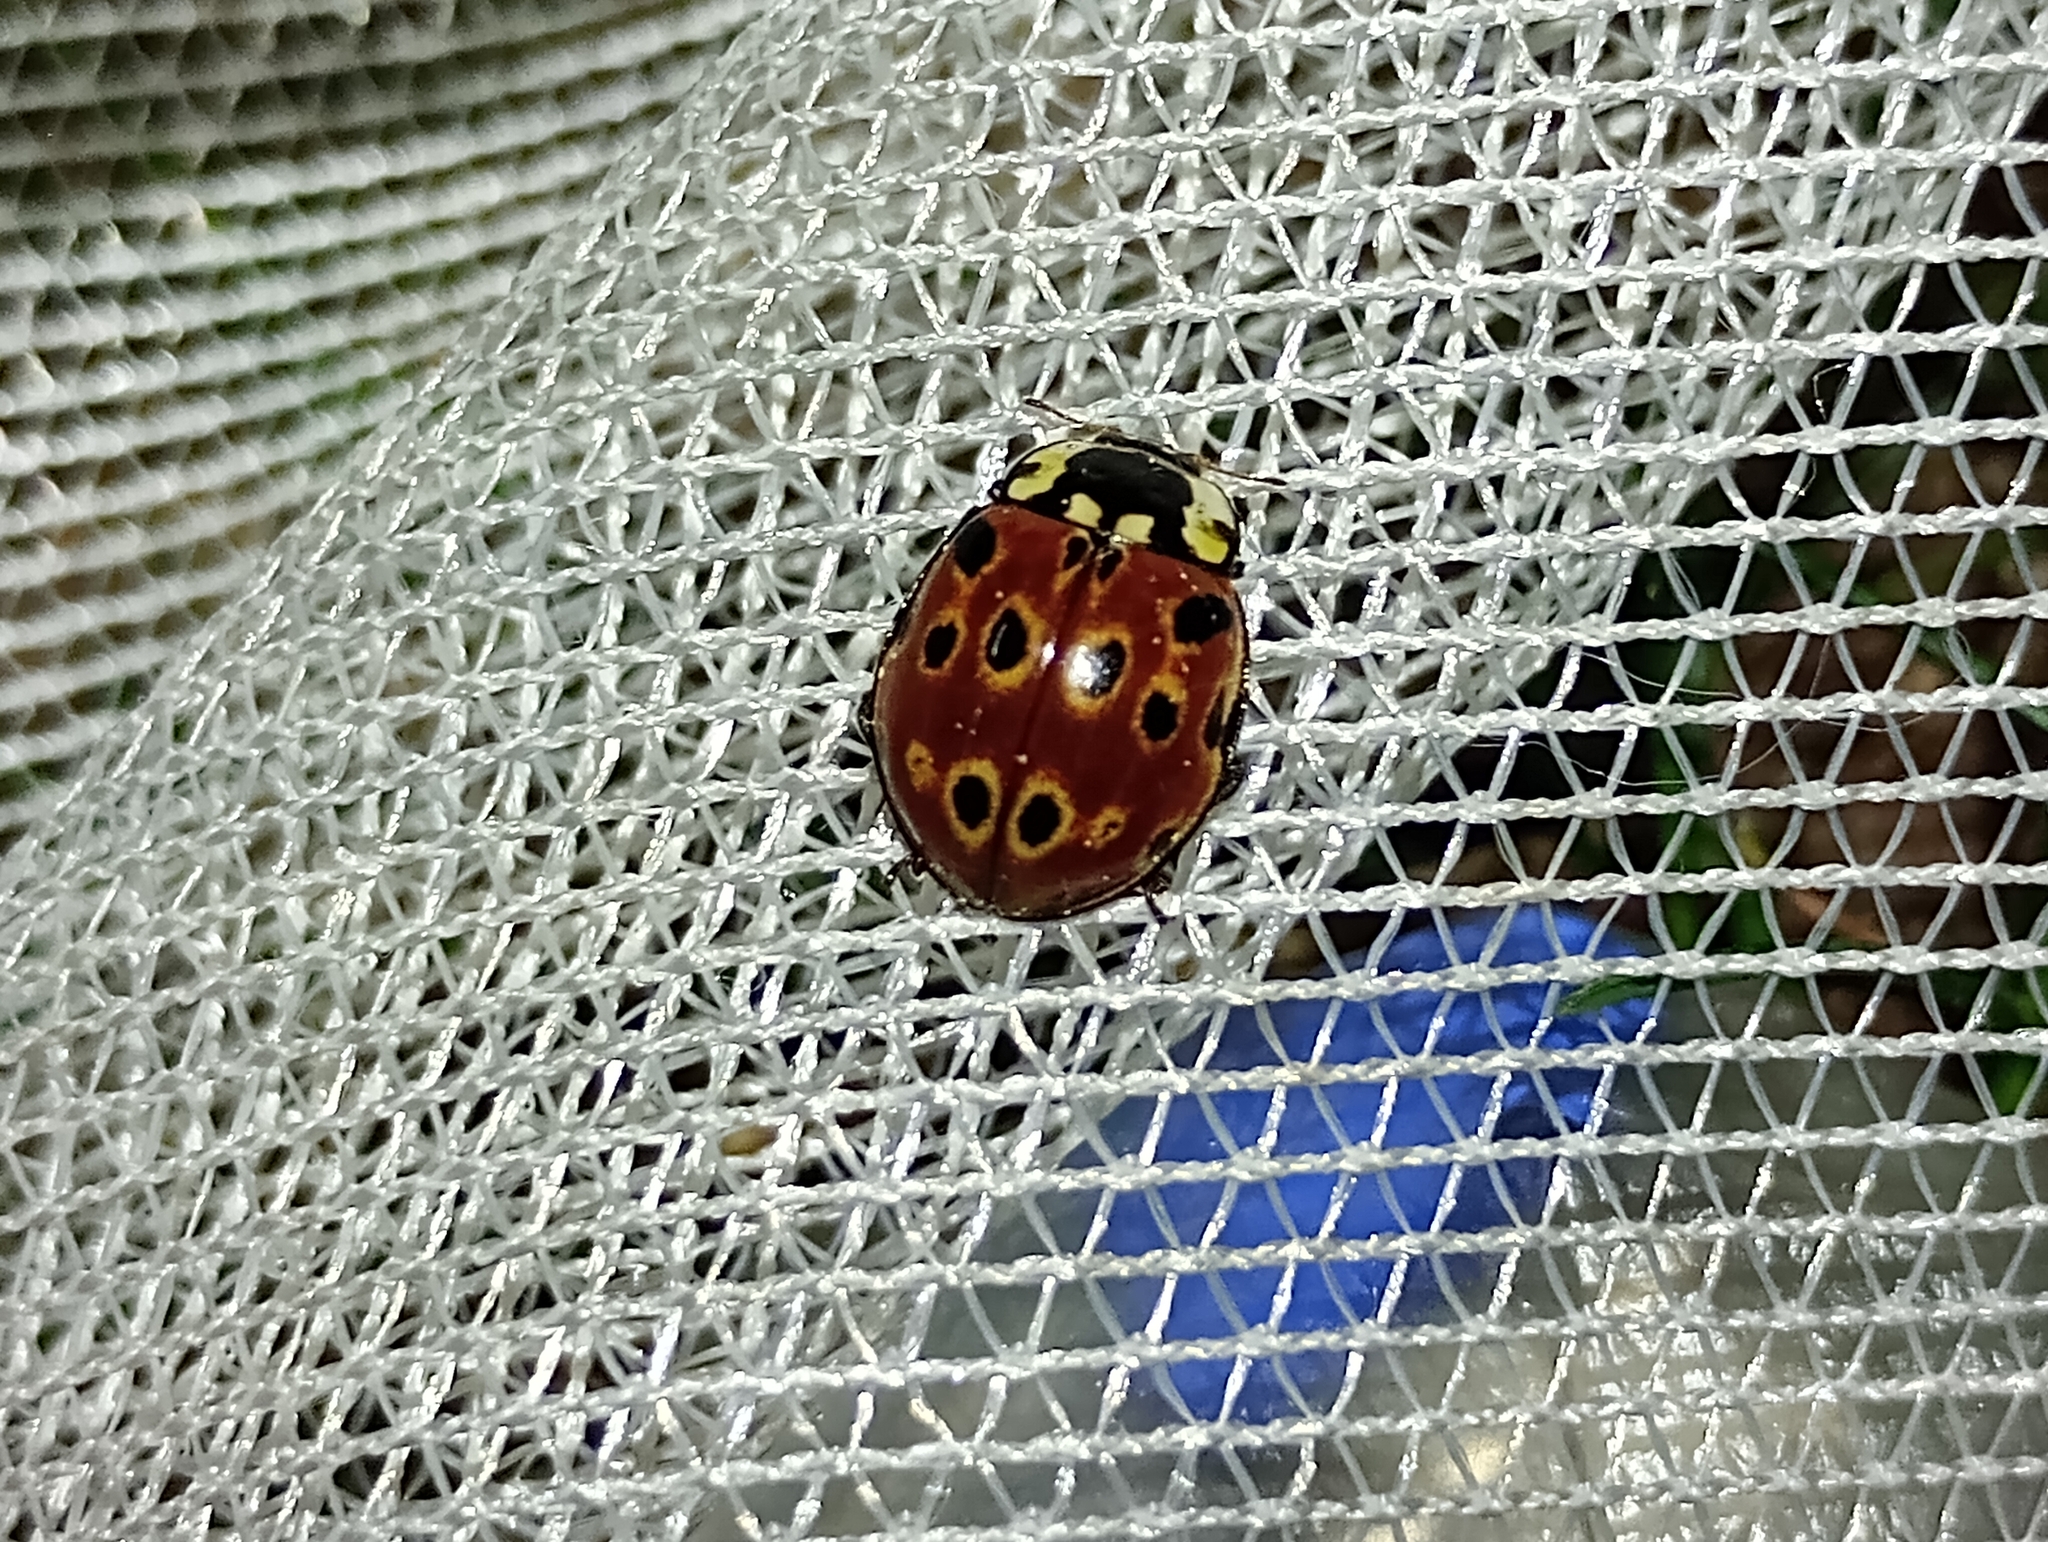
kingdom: Animalia
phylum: Arthropoda
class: Insecta
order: Coleoptera
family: Coccinellidae
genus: Anatis
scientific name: Anatis ocellata
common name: Eyed ladybird
